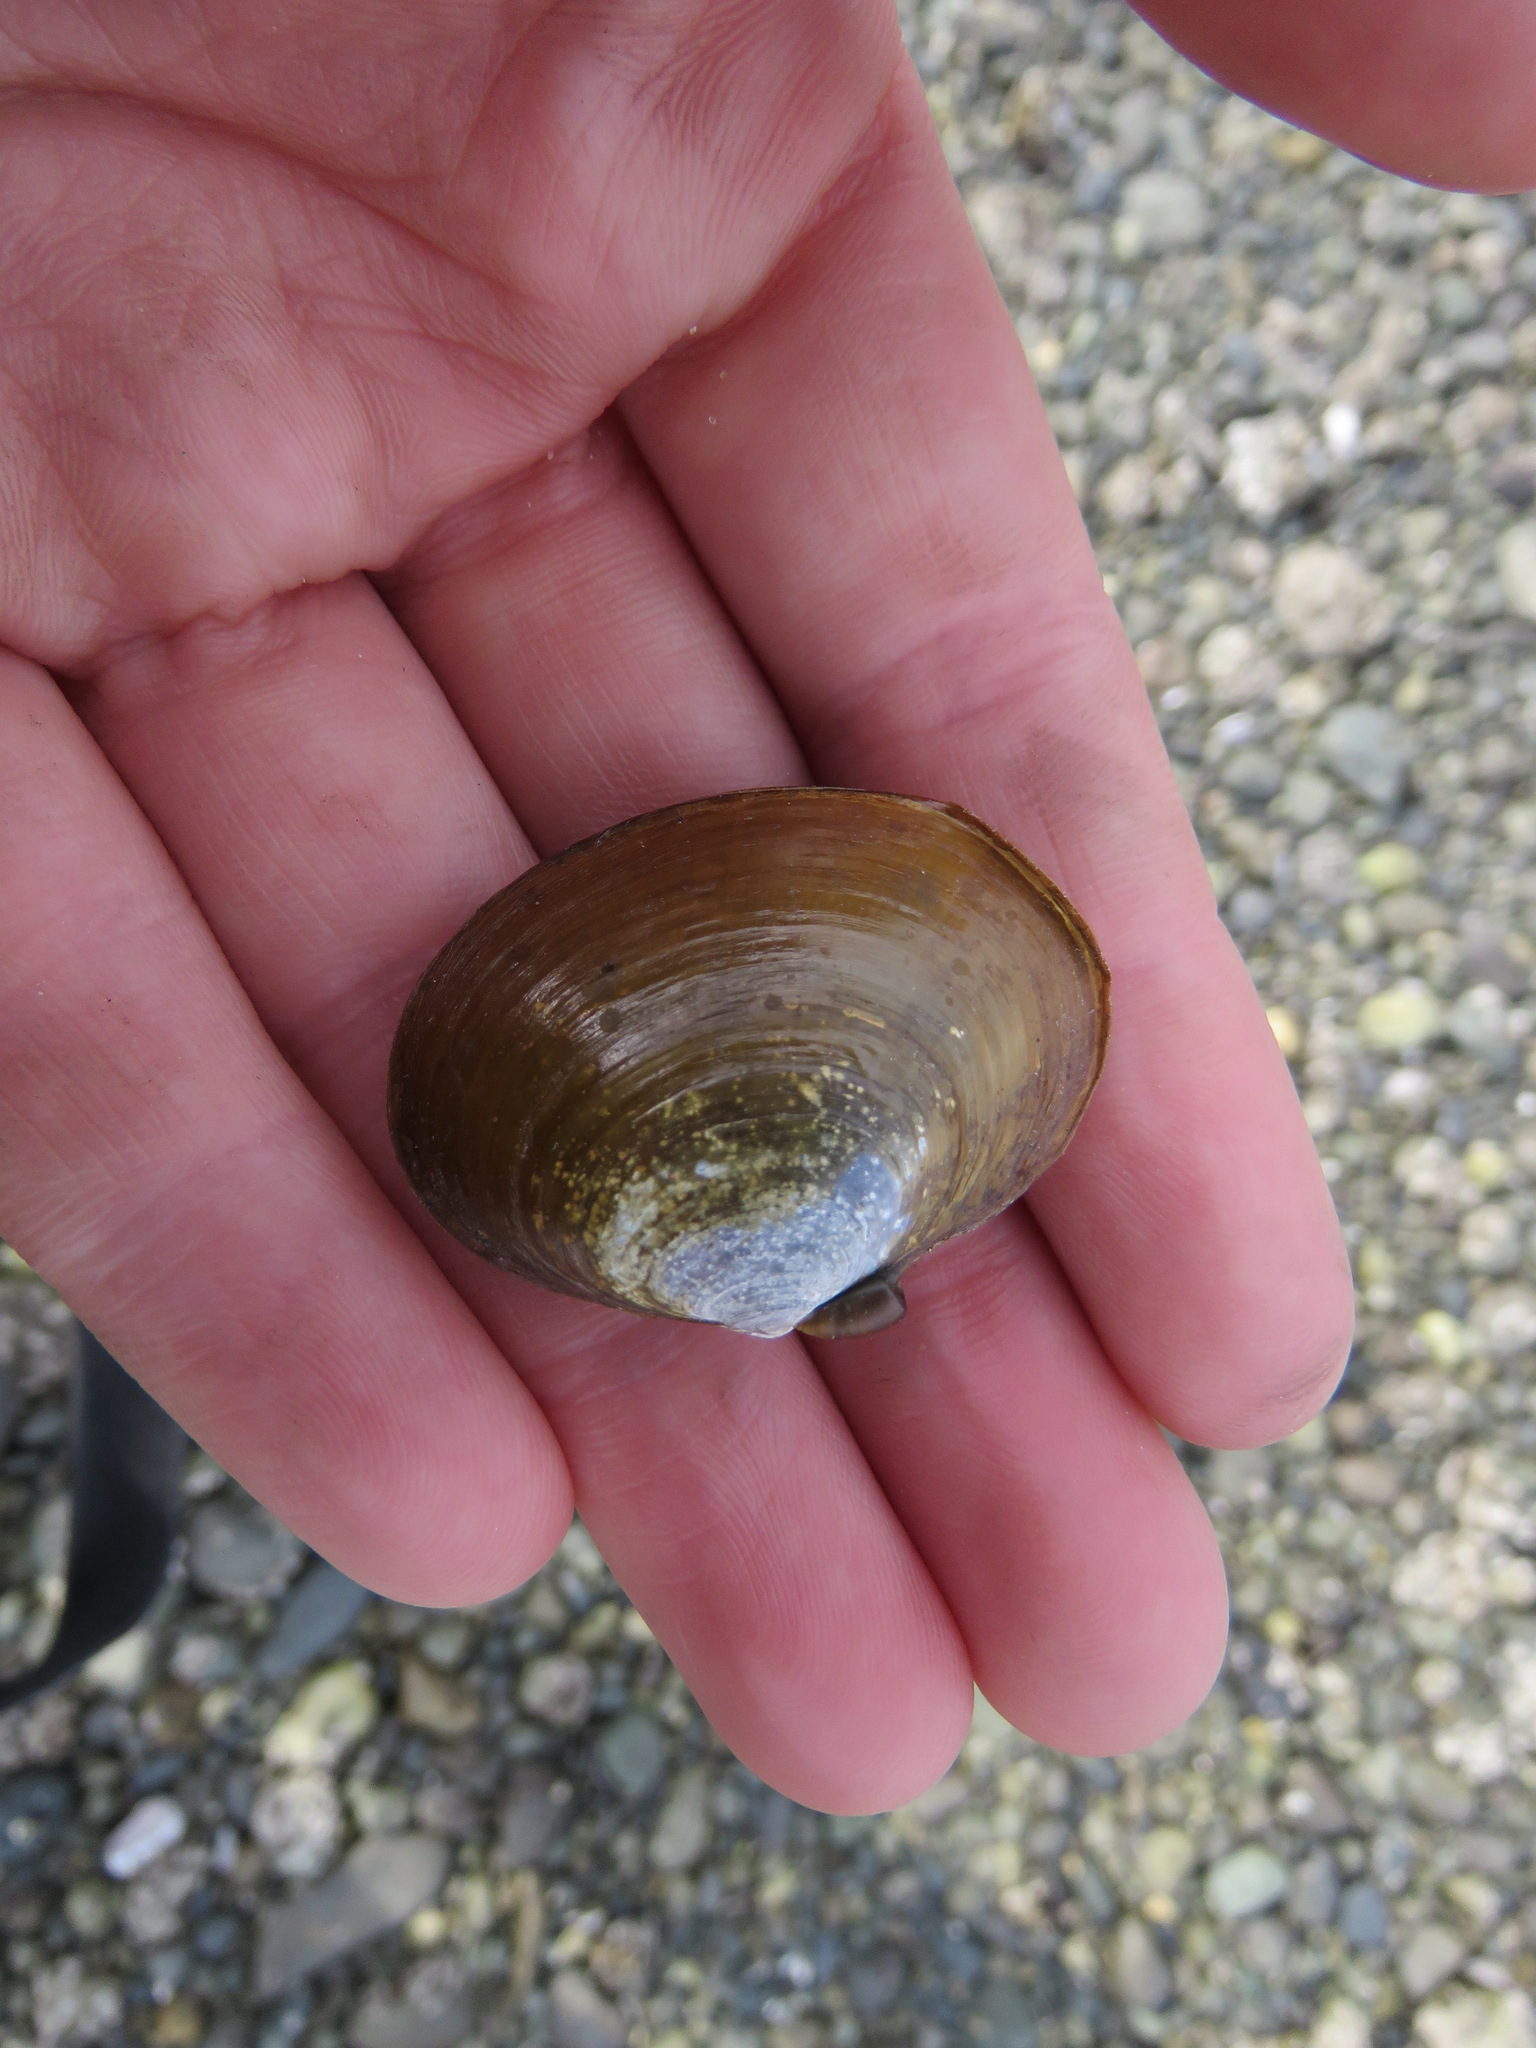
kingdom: Animalia
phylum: Mollusca
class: Bivalvia
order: Cardiida
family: Psammobiidae
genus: Nuttallia
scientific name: Nuttallia obscurata
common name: Purple mahogany-clam
